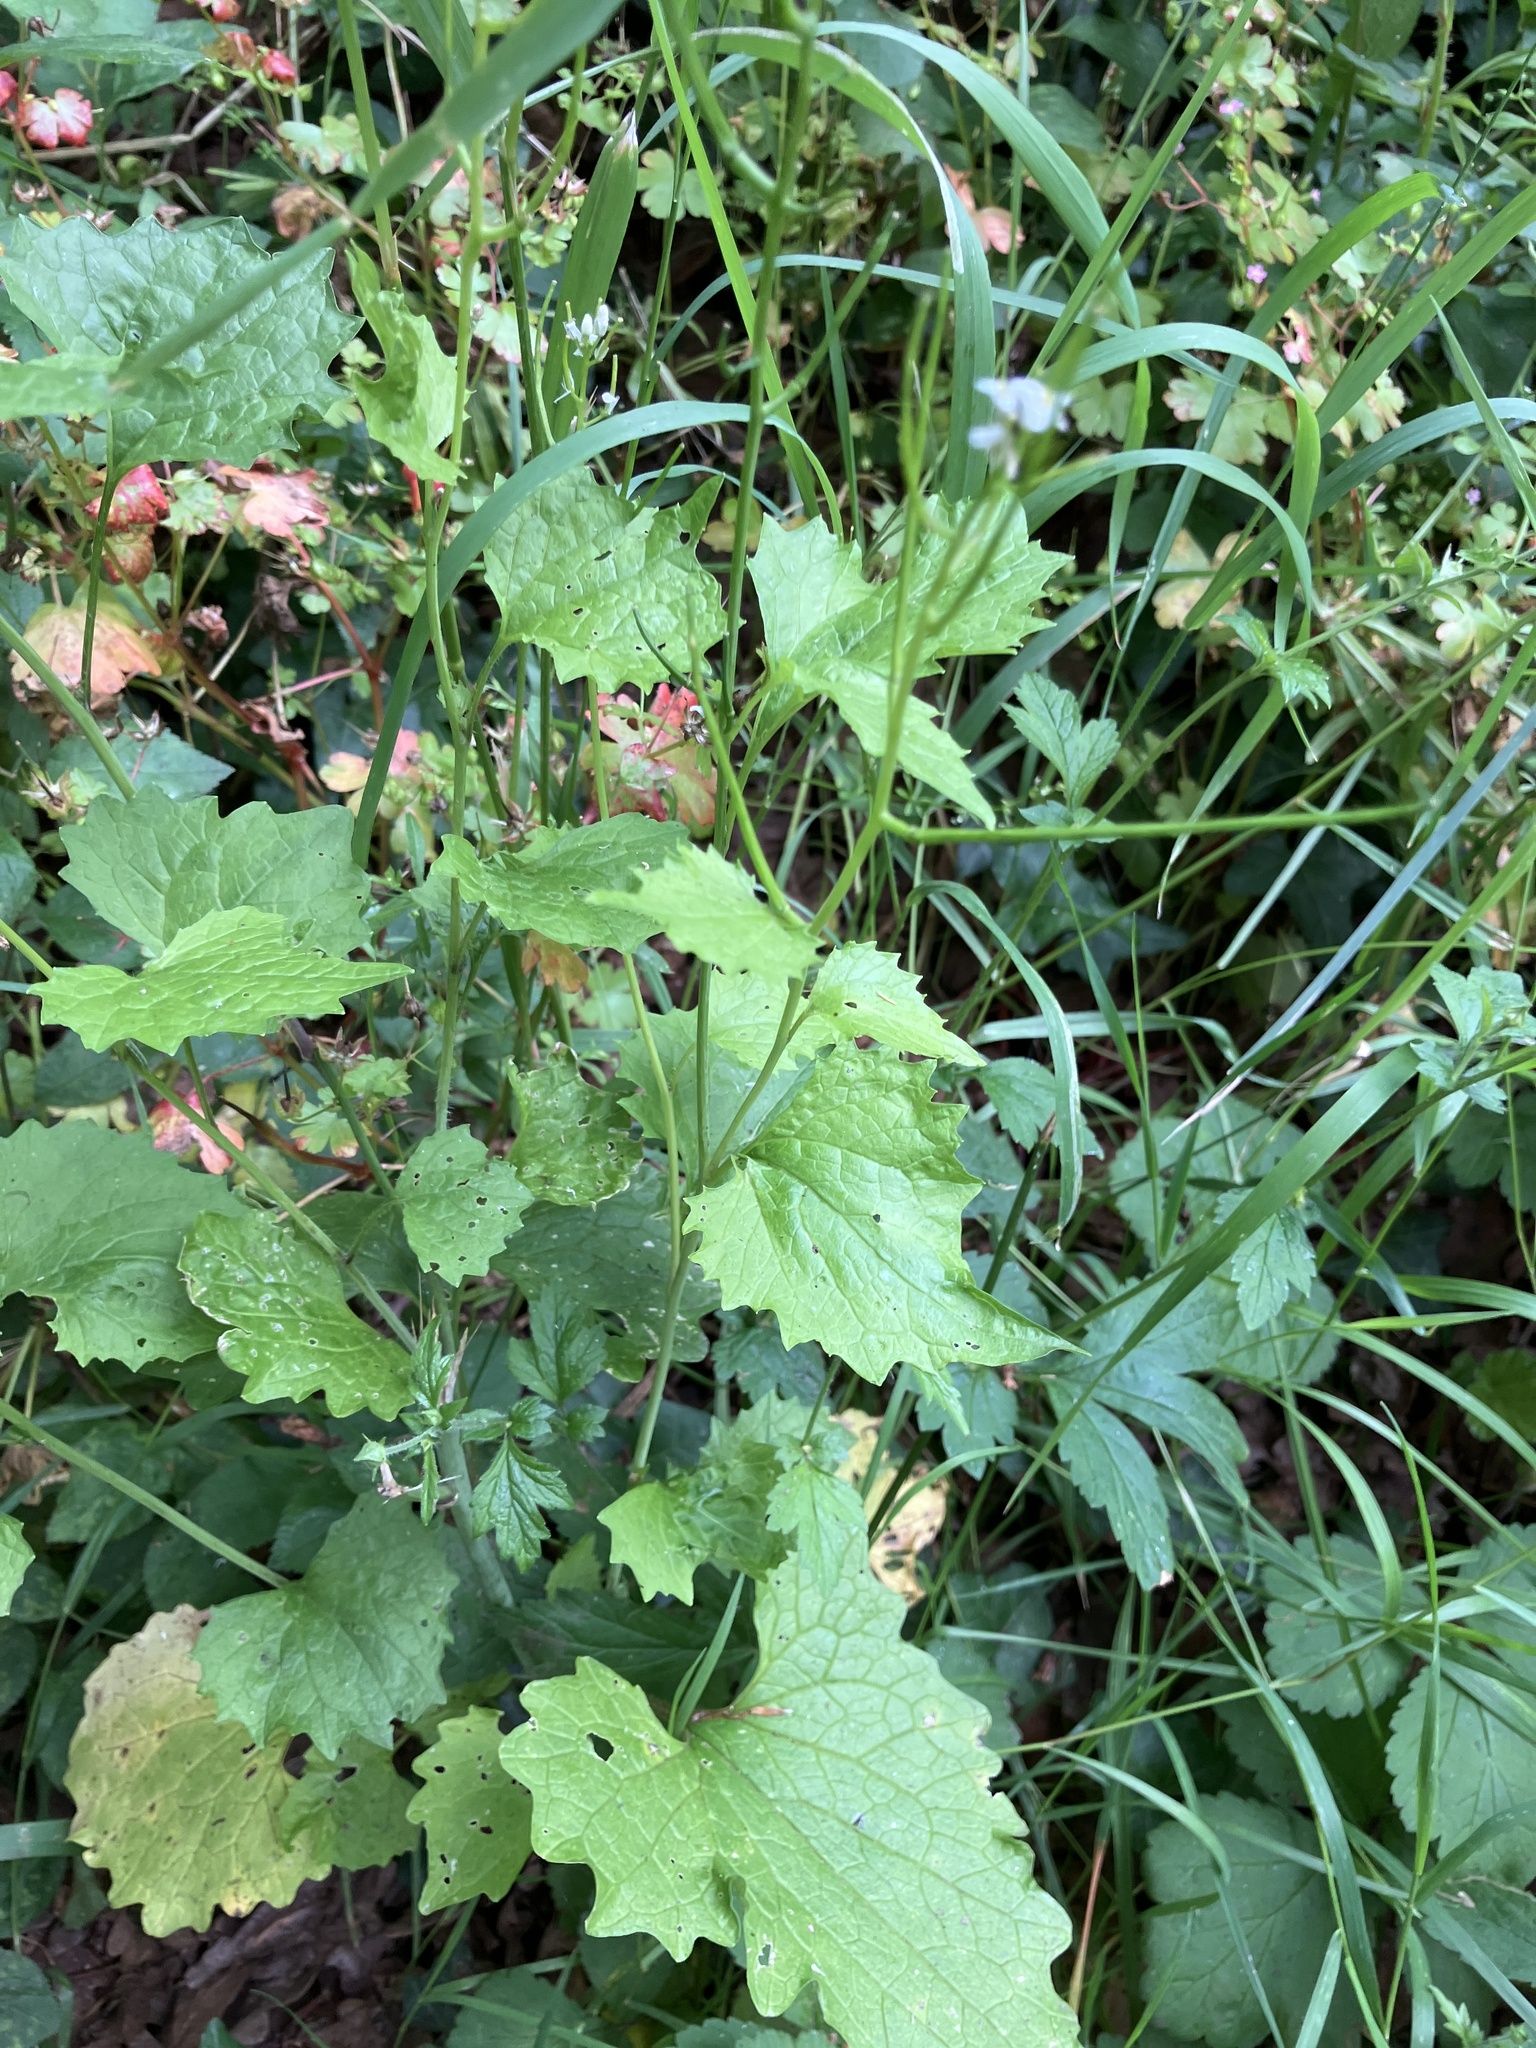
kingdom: Plantae
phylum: Tracheophyta
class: Magnoliopsida
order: Brassicales
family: Brassicaceae
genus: Alliaria
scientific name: Alliaria petiolata
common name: Garlic mustard
